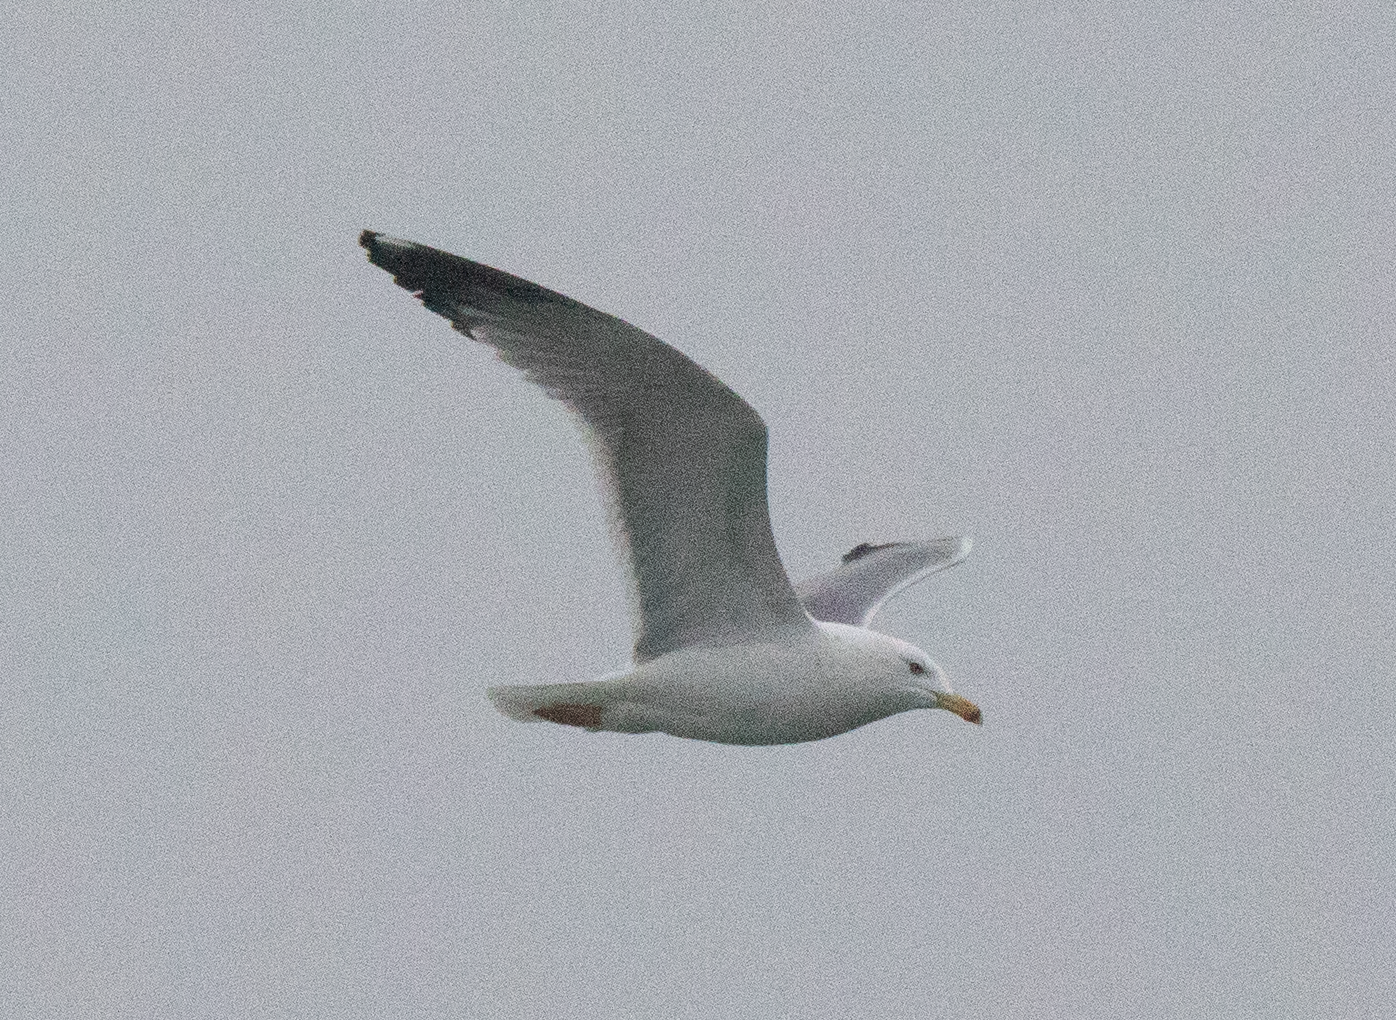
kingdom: Animalia
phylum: Chordata
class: Aves
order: Charadriiformes
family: Laridae
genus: Larus
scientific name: Larus michahellis
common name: Yellow-legged gull
